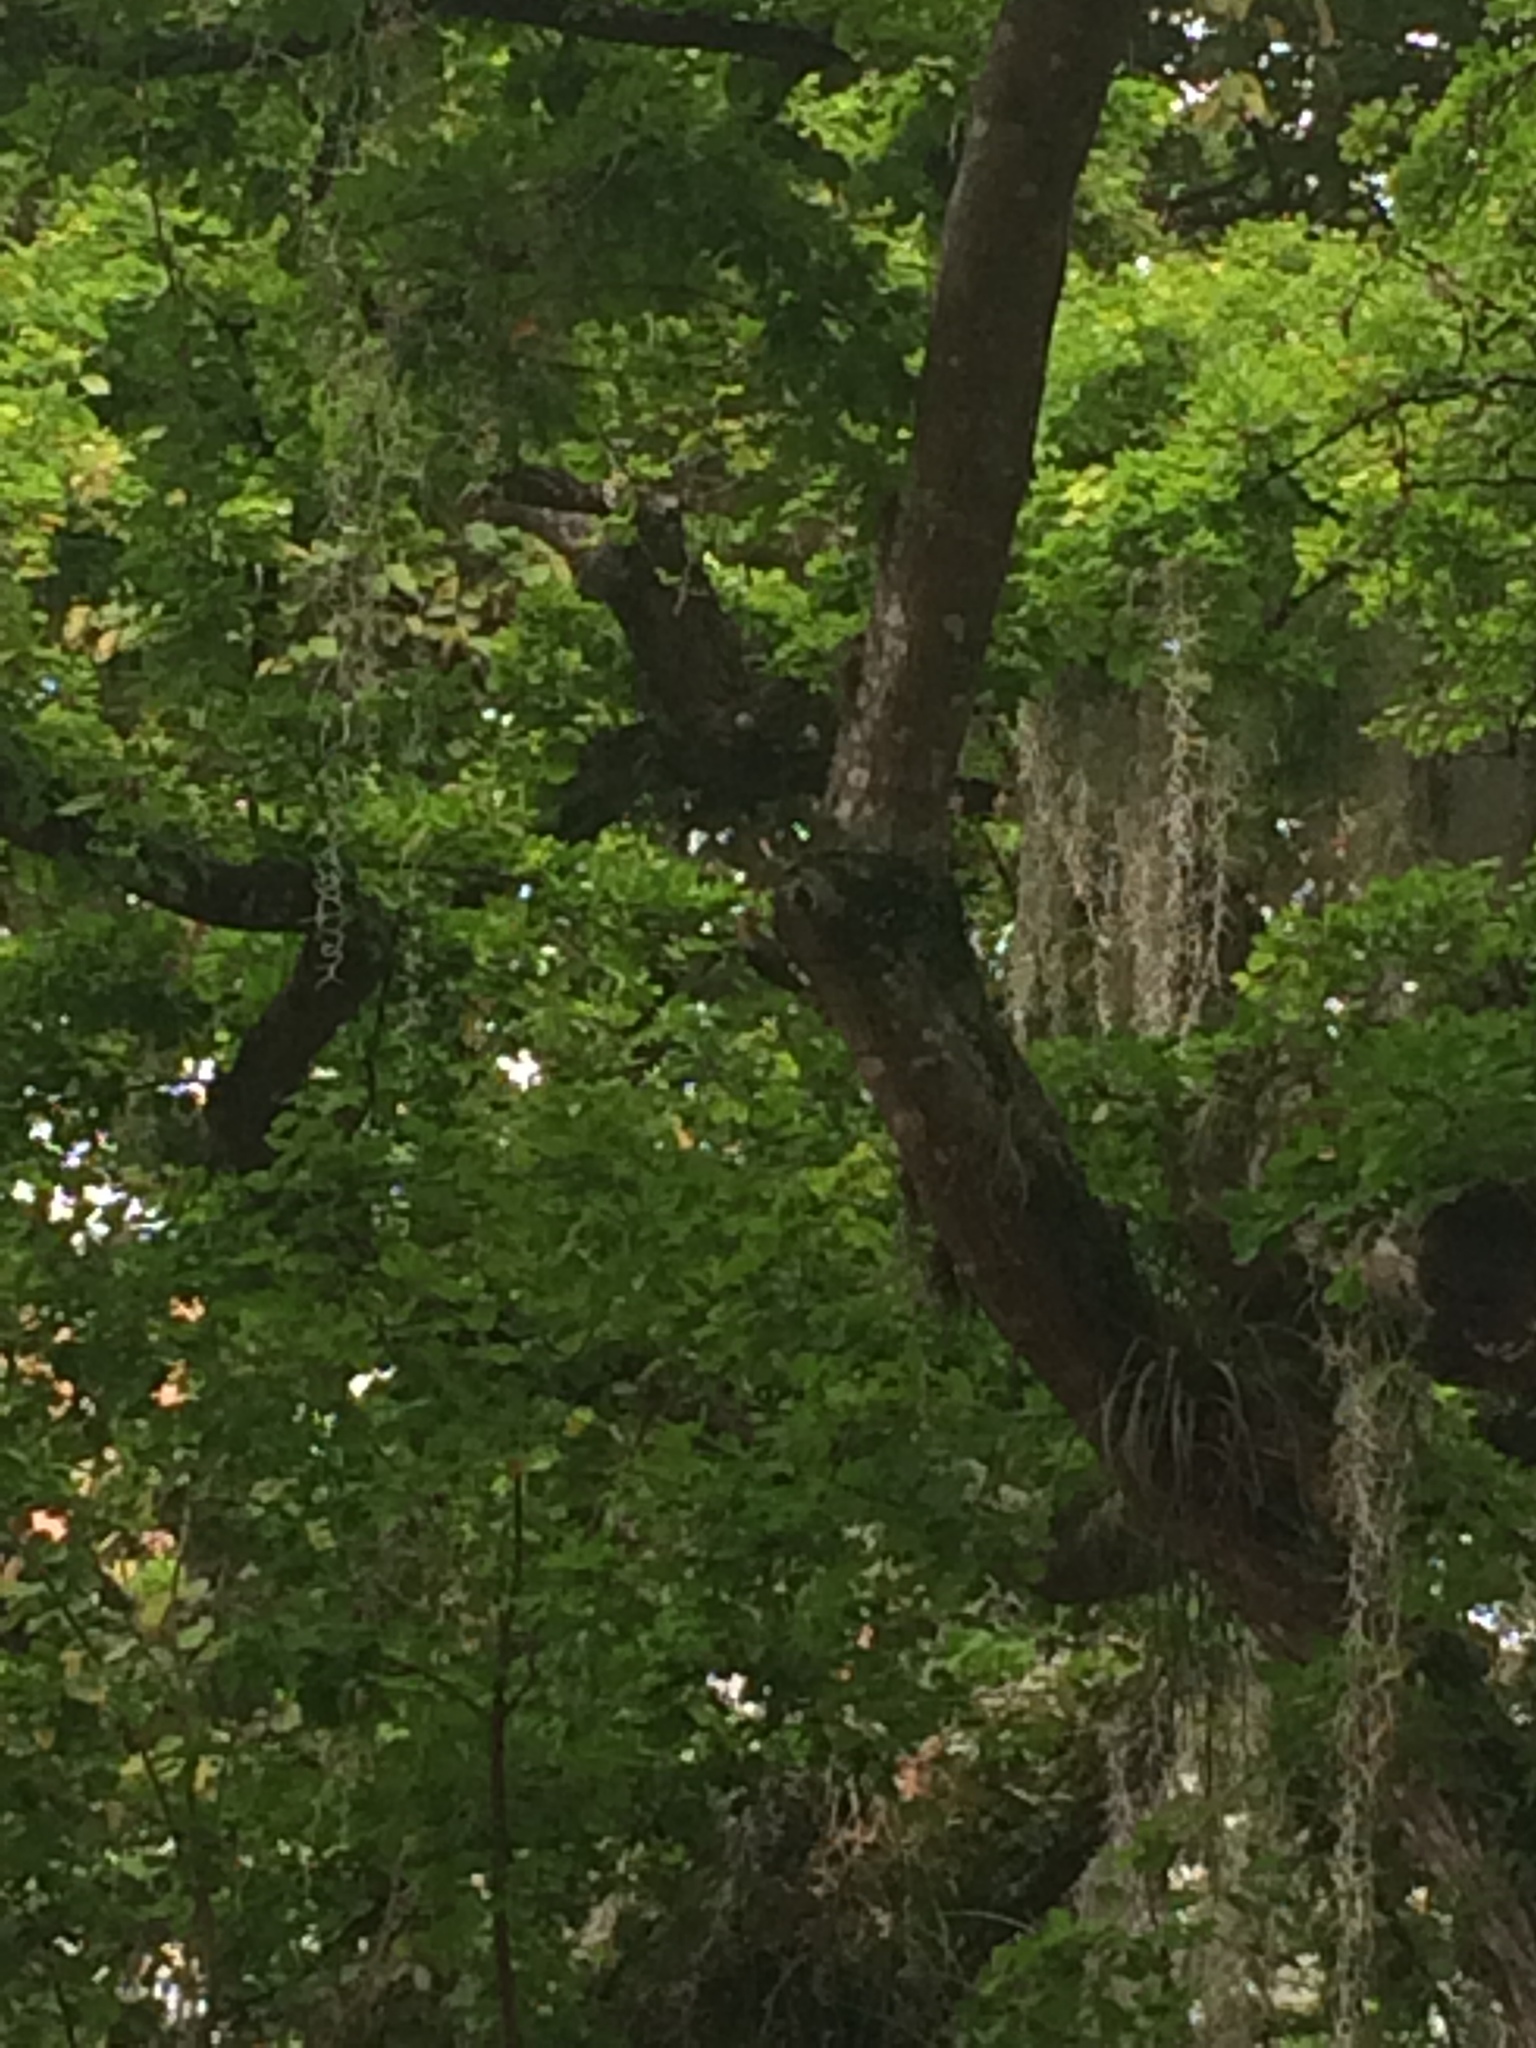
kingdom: Animalia
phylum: Chordata
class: Aves
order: Piciformes
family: Picidae
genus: Melanerpes
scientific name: Melanerpes rubricapillus
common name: Red-crowned woodpecker
